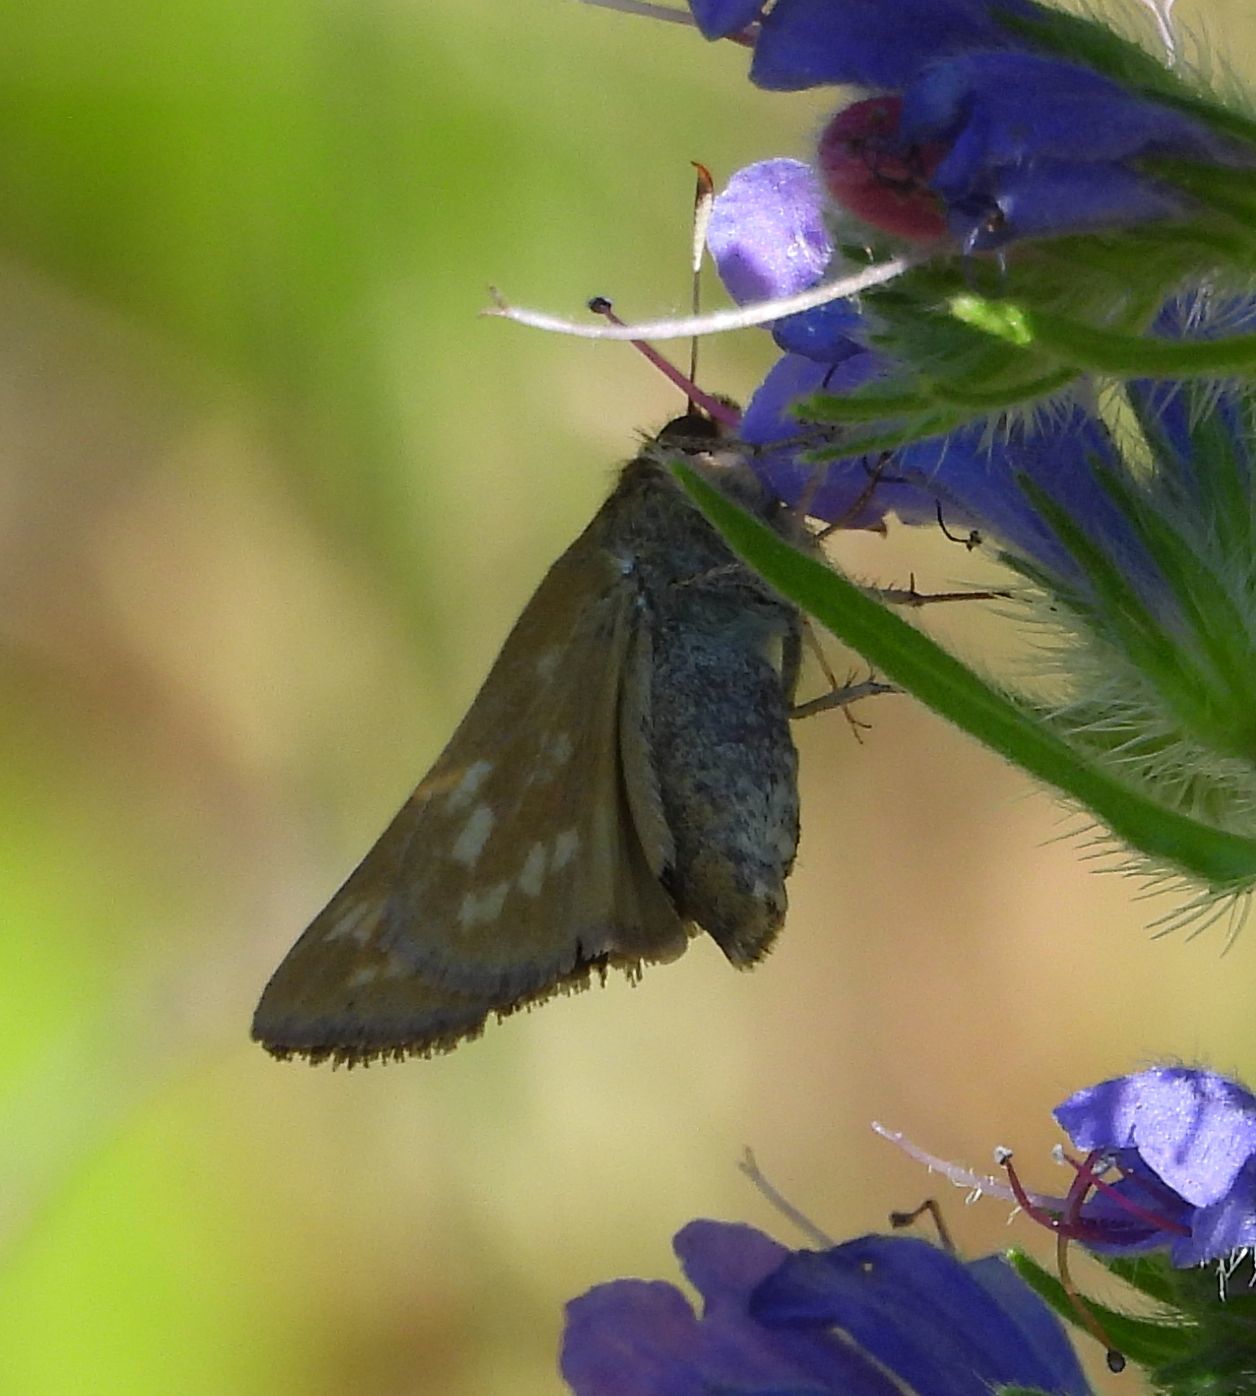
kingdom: Animalia
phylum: Arthropoda
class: Insecta
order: Lepidoptera
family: Hesperiidae
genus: Hesperia
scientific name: Hesperia sassacus
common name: Indian skipper
